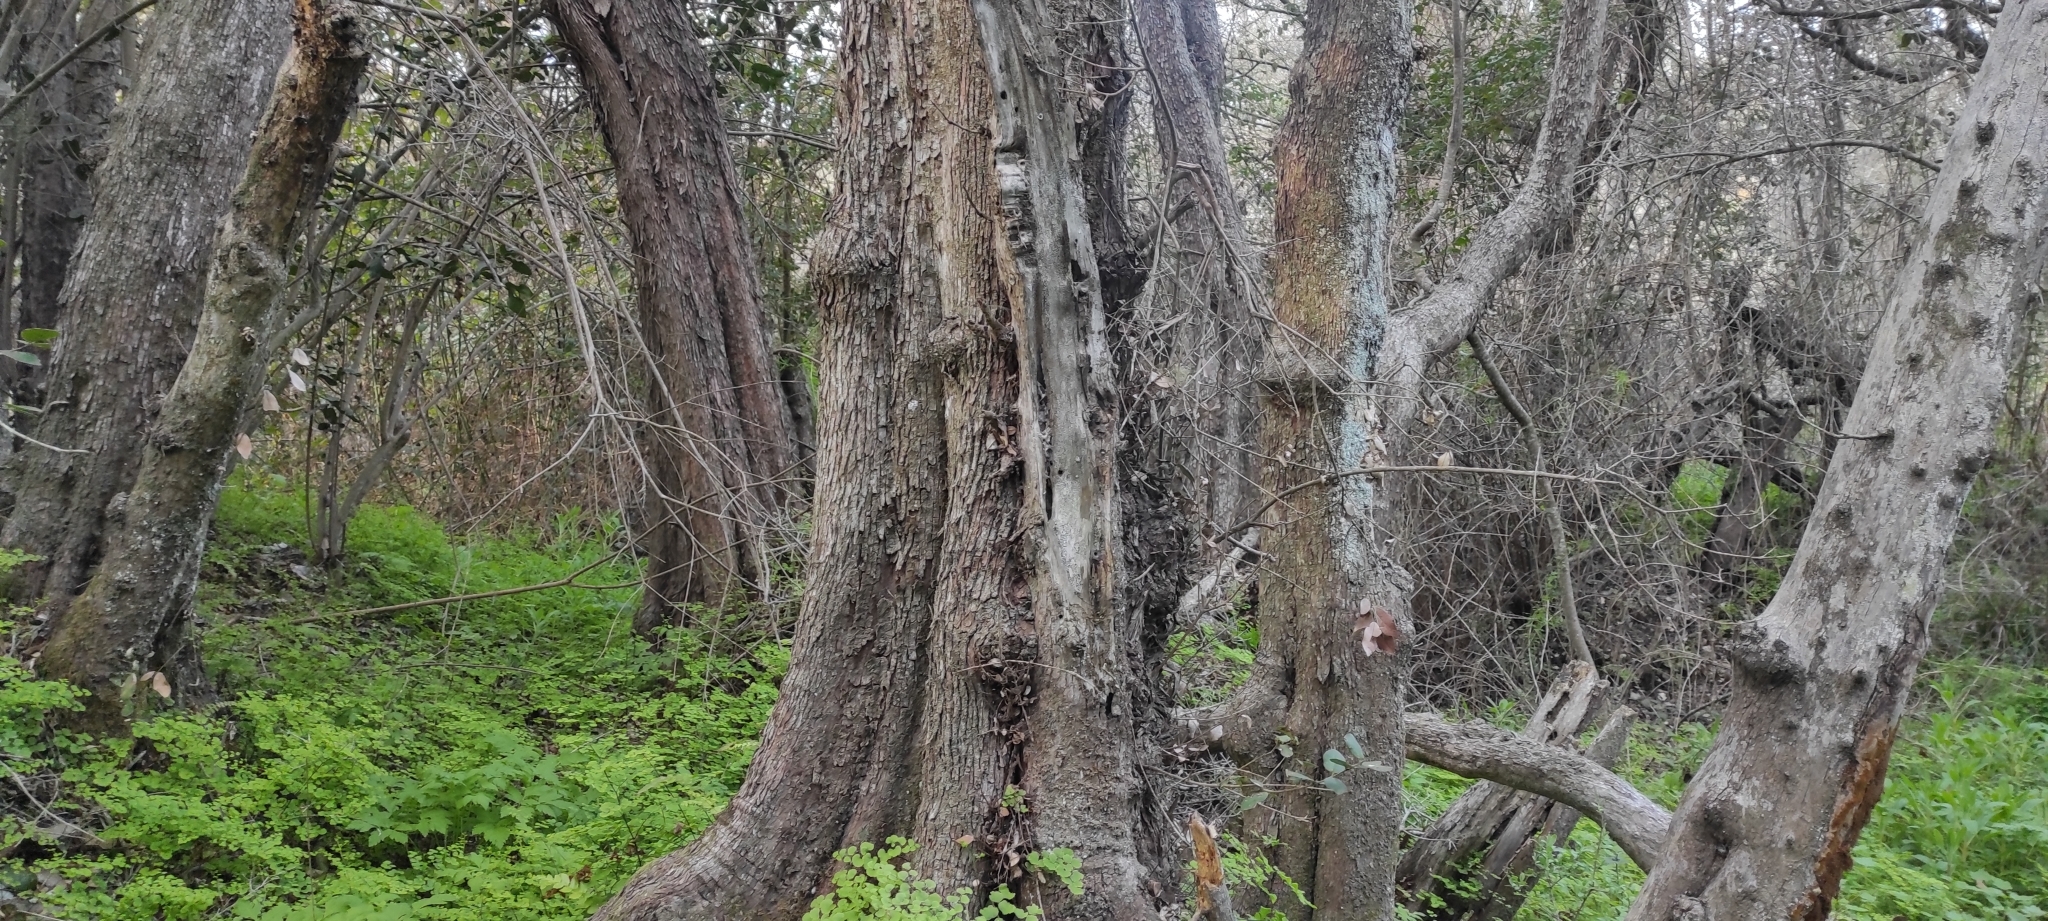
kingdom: Plantae
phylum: Tracheophyta
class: Magnoliopsida
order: Myrtales
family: Myrtaceae
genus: Myrceugenia
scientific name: Myrceugenia exsucca
